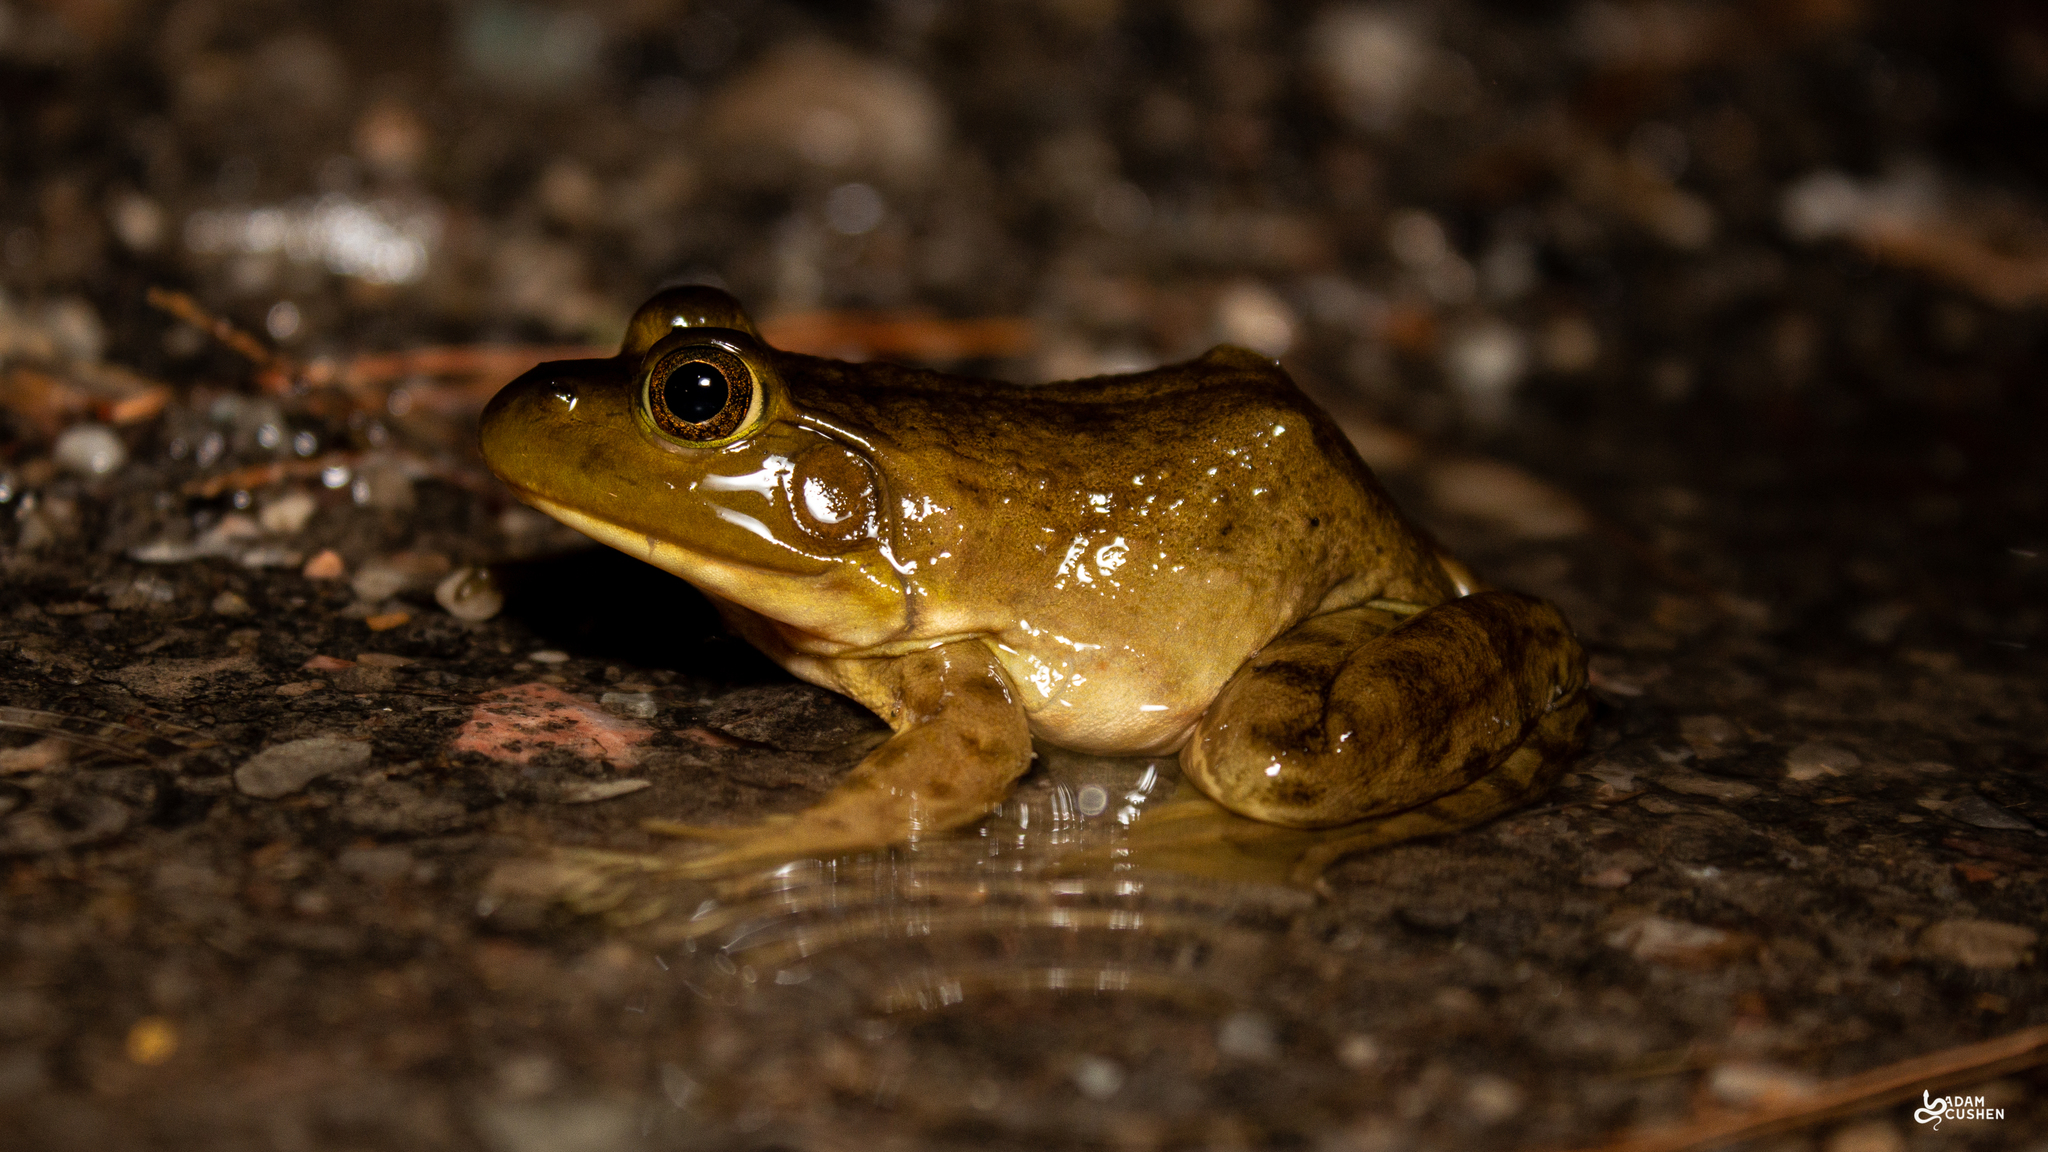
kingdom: Animalia
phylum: Chordata
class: Amphibia
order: Anura
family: Ranidae
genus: Lithobates
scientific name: Lithobates catesbeianus
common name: American bullfrog
